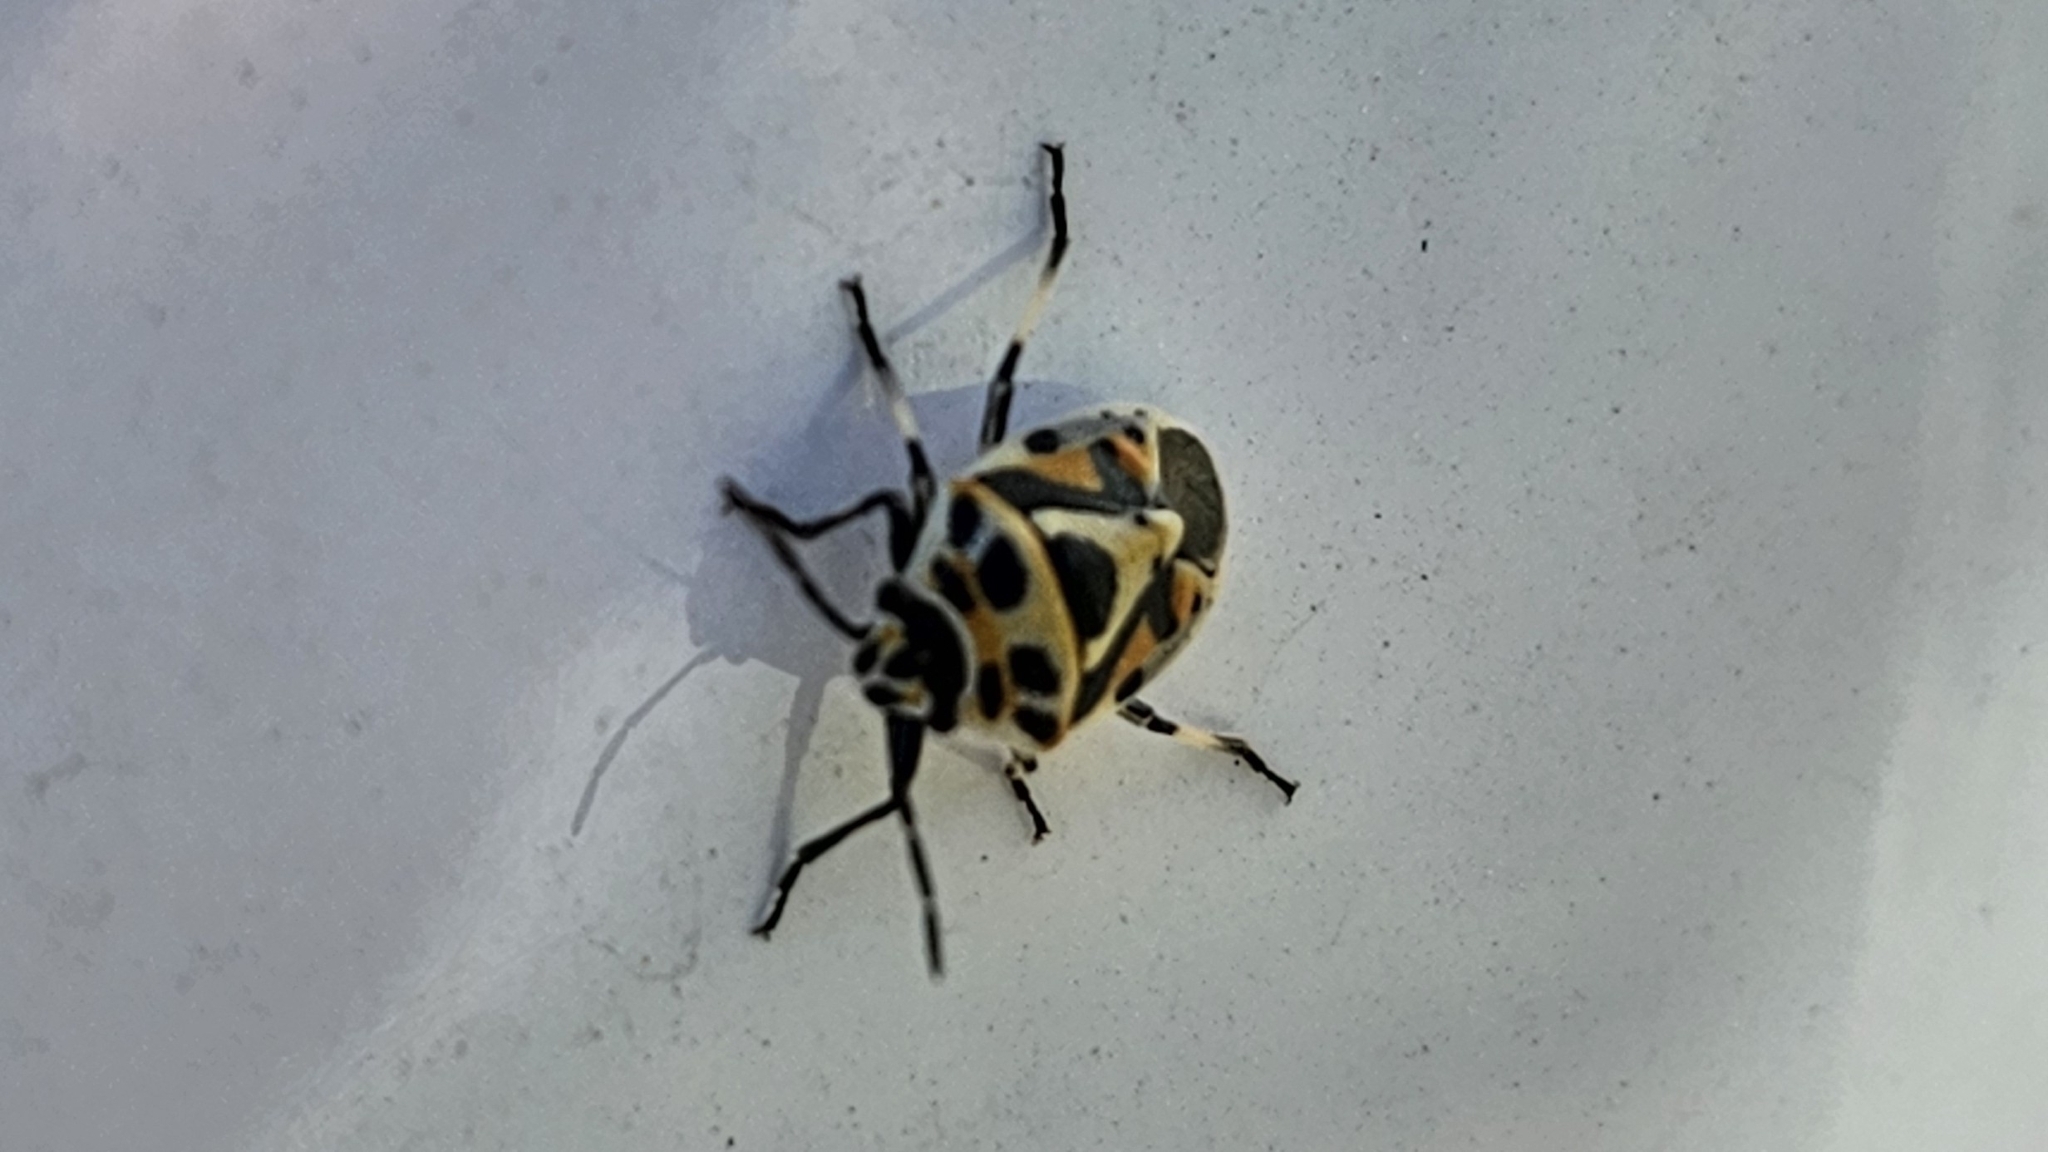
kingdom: Animalia
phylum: Arthropoda
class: Insecta
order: Hemiptera
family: Pentatomidae
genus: Eurydema
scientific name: Eurydema ornata
